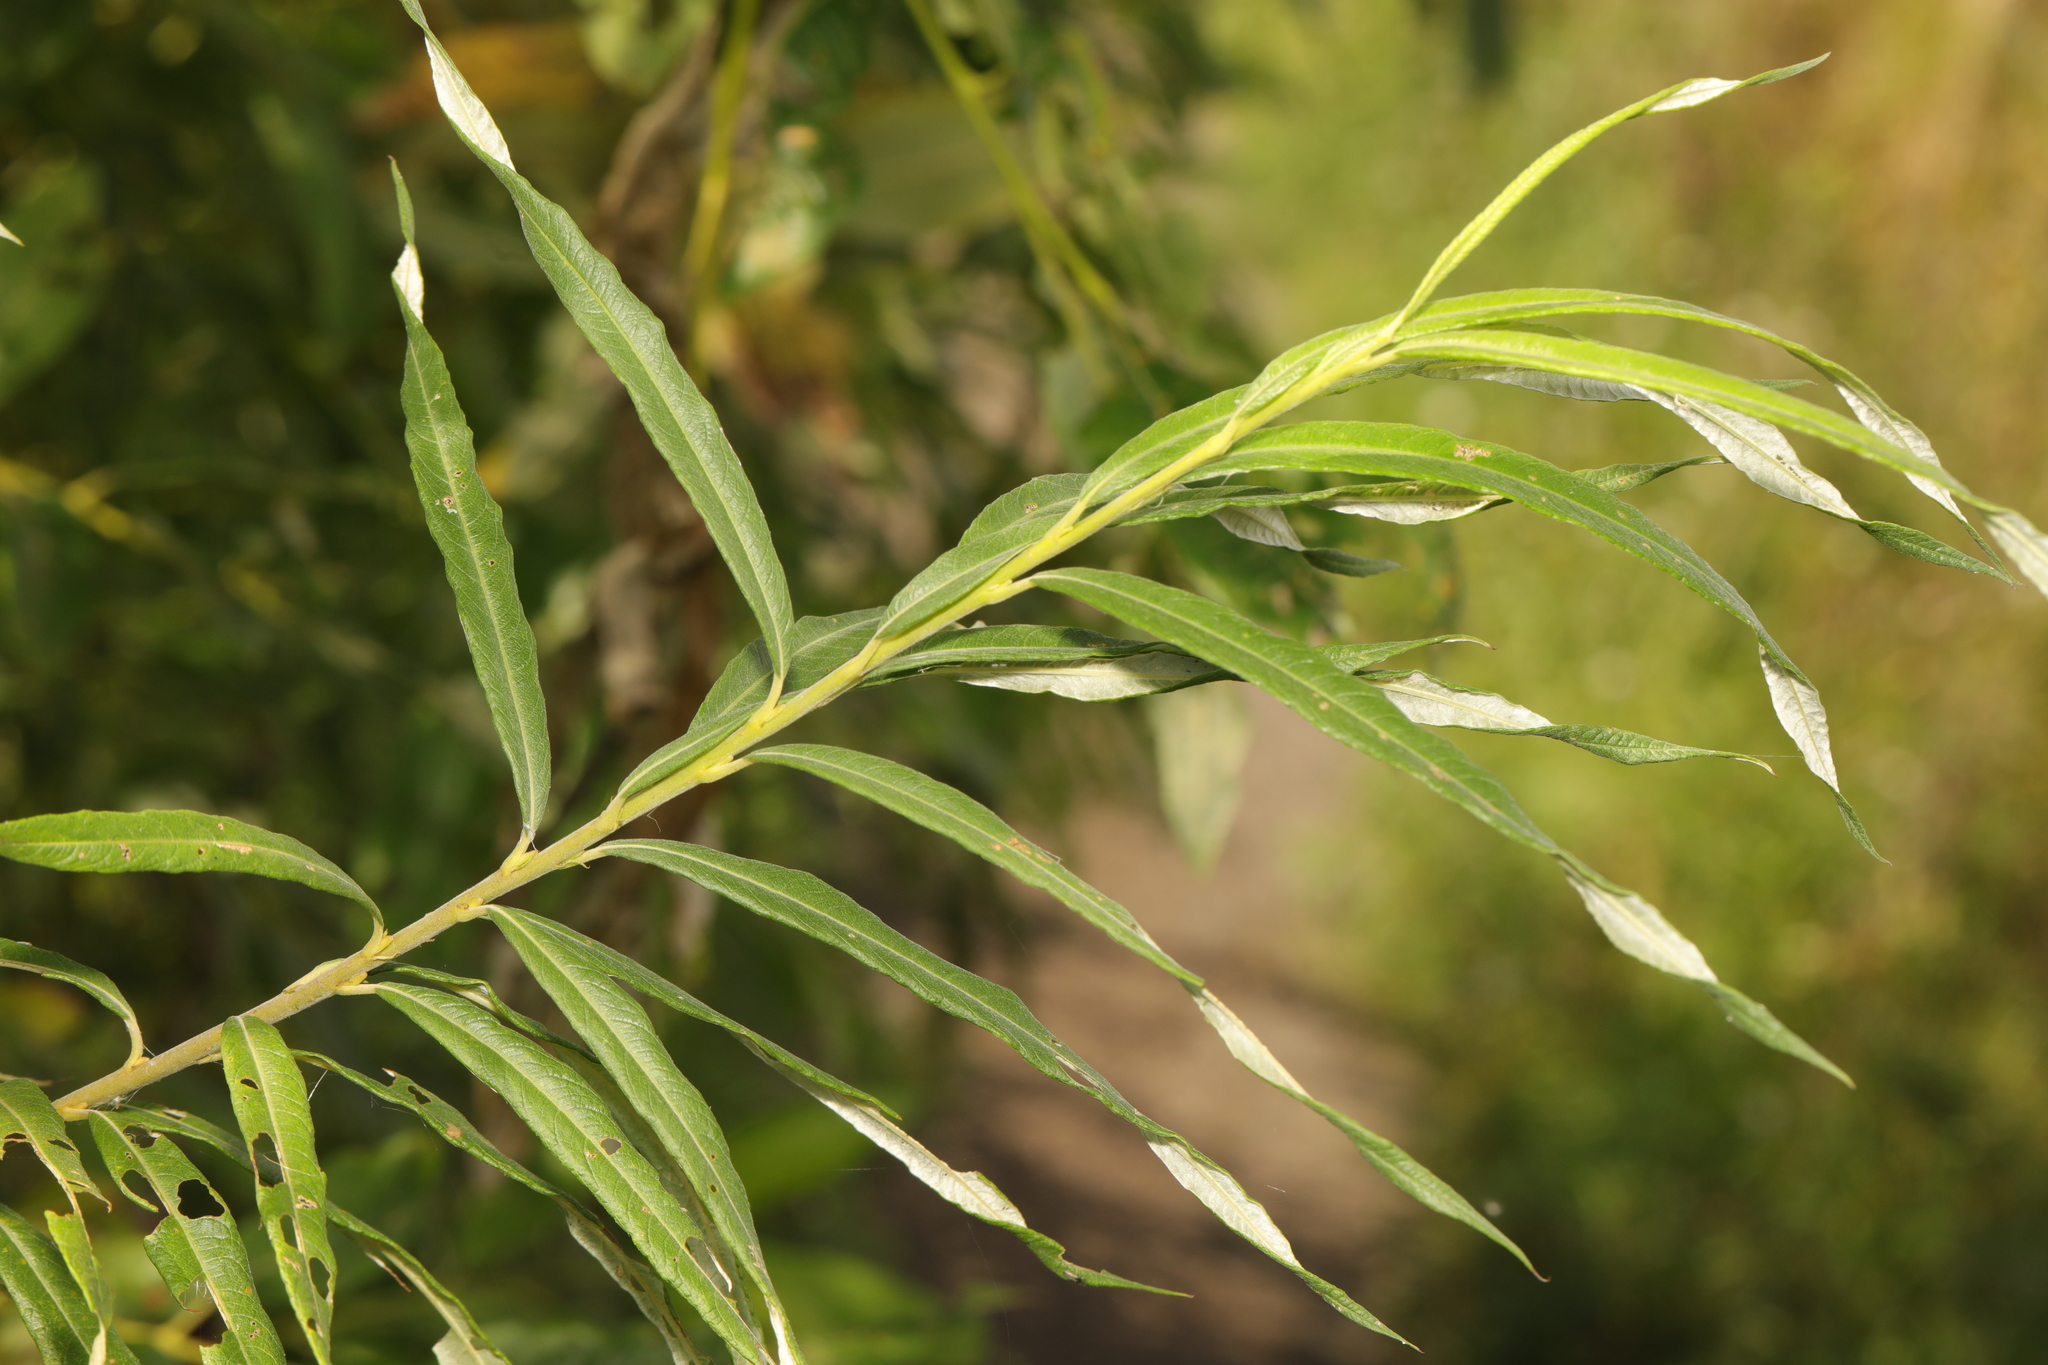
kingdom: Plantae
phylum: Tracheophyta
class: Magnoliopsida
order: Malpighiales
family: Salicaceae
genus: Salix
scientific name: Salix viminalis
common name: Osier
